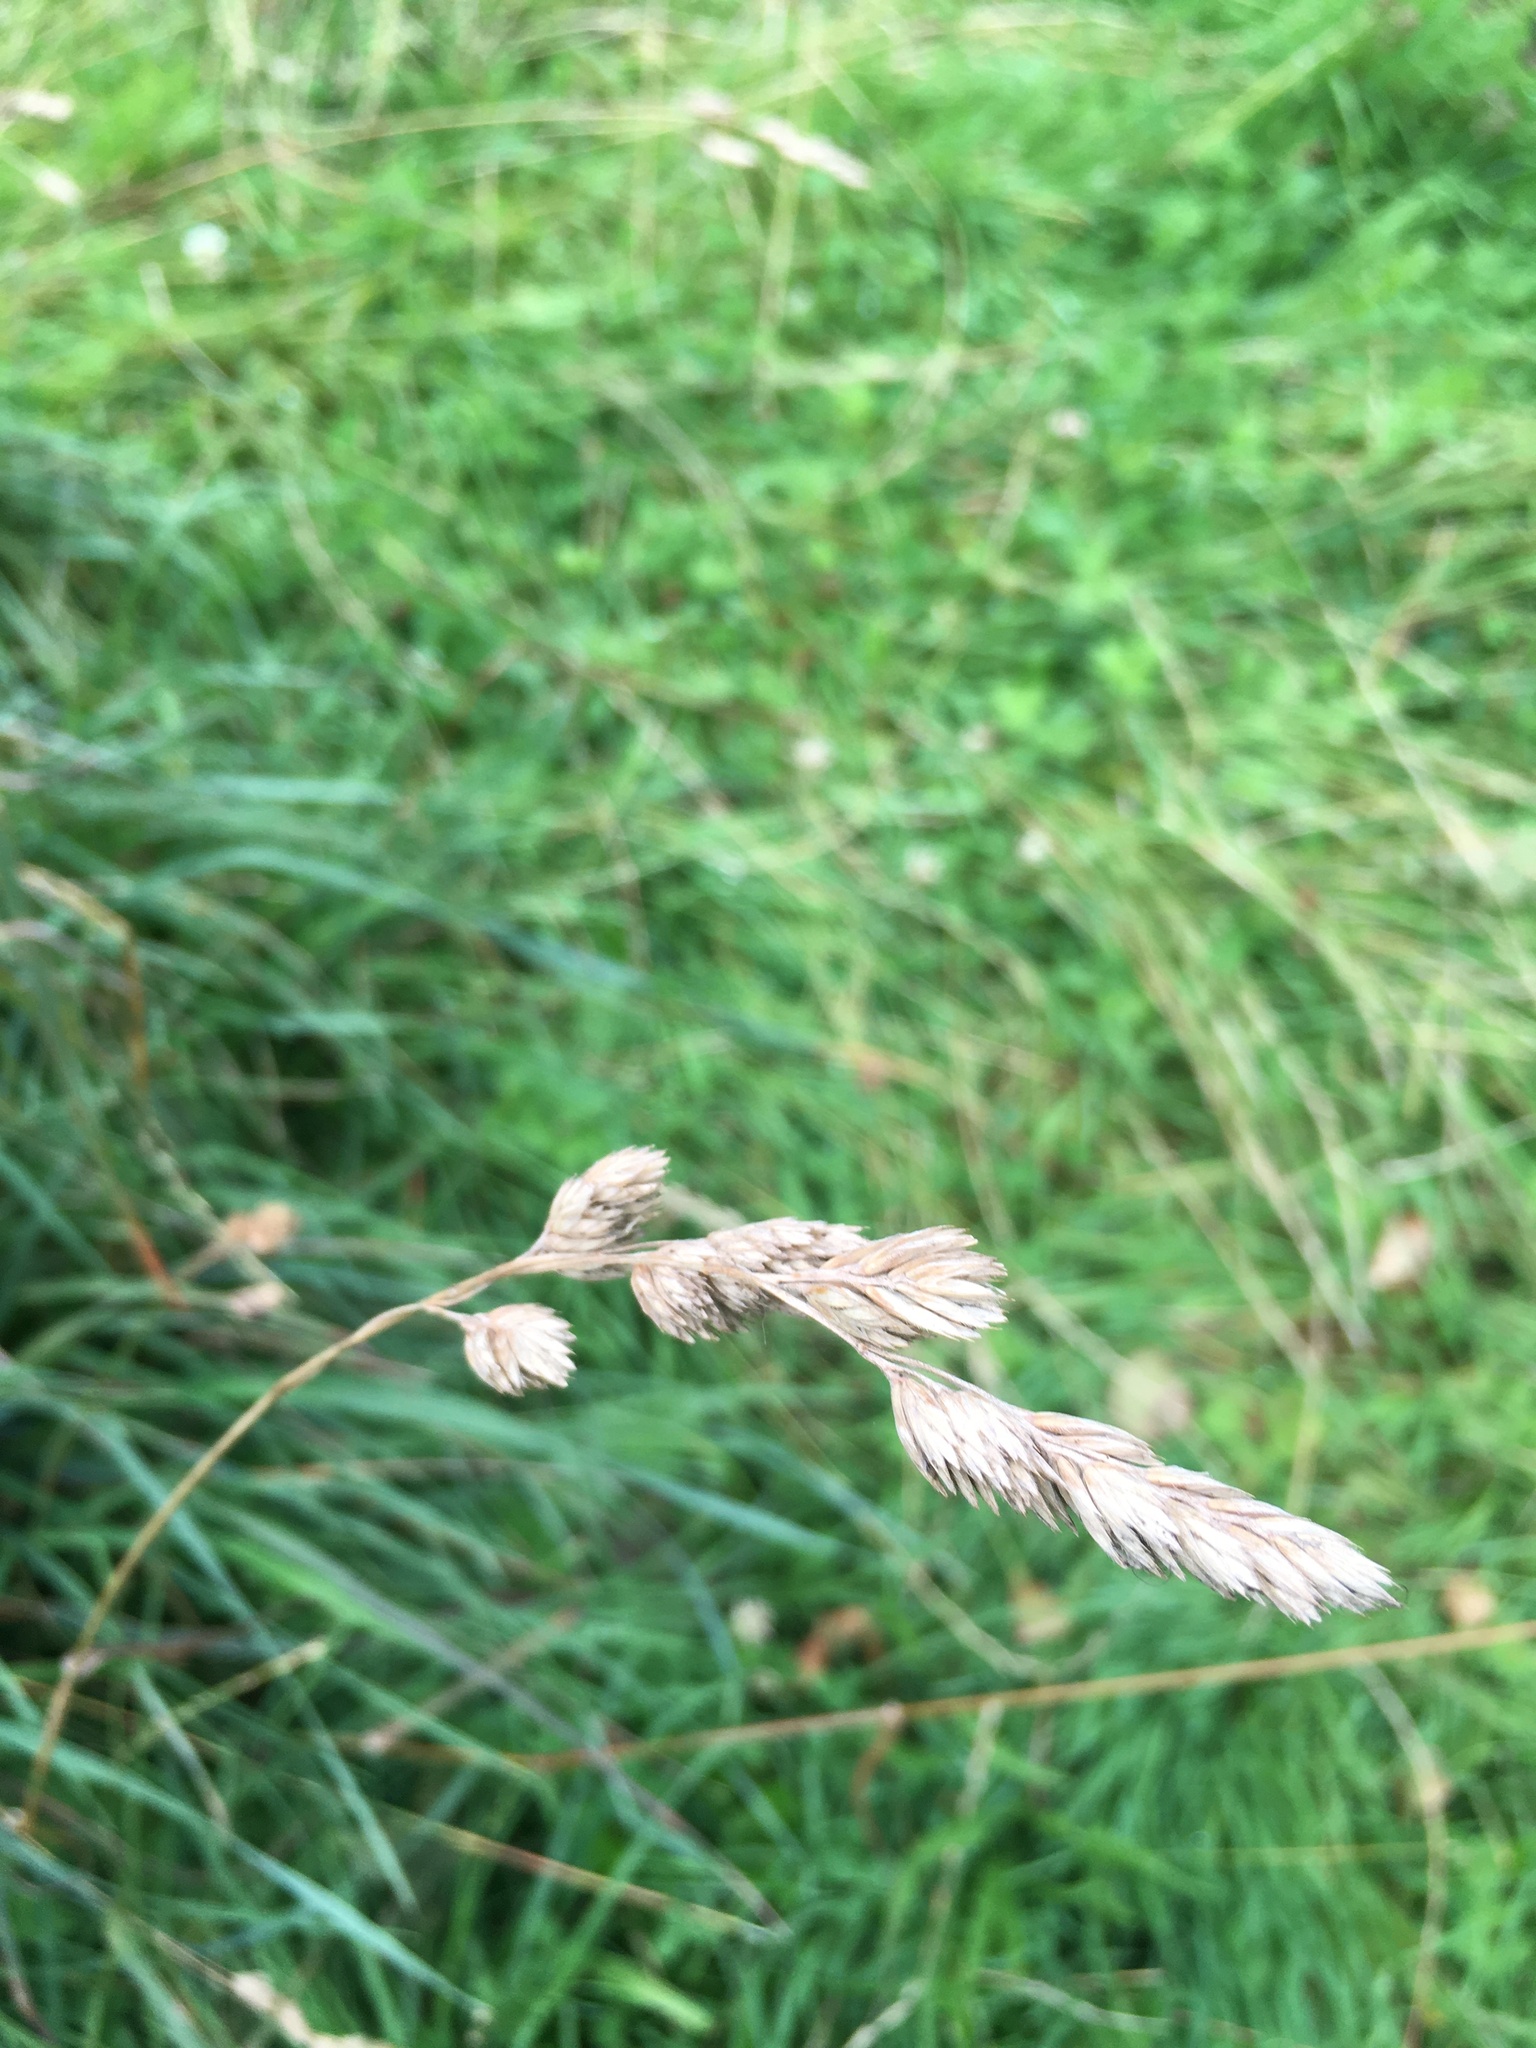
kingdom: Plantae
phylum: Tracheophyta
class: Liliopsida
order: Poales
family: Poaceae
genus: Dactylis
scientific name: Dactylis glomerata
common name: Orchardgrass
